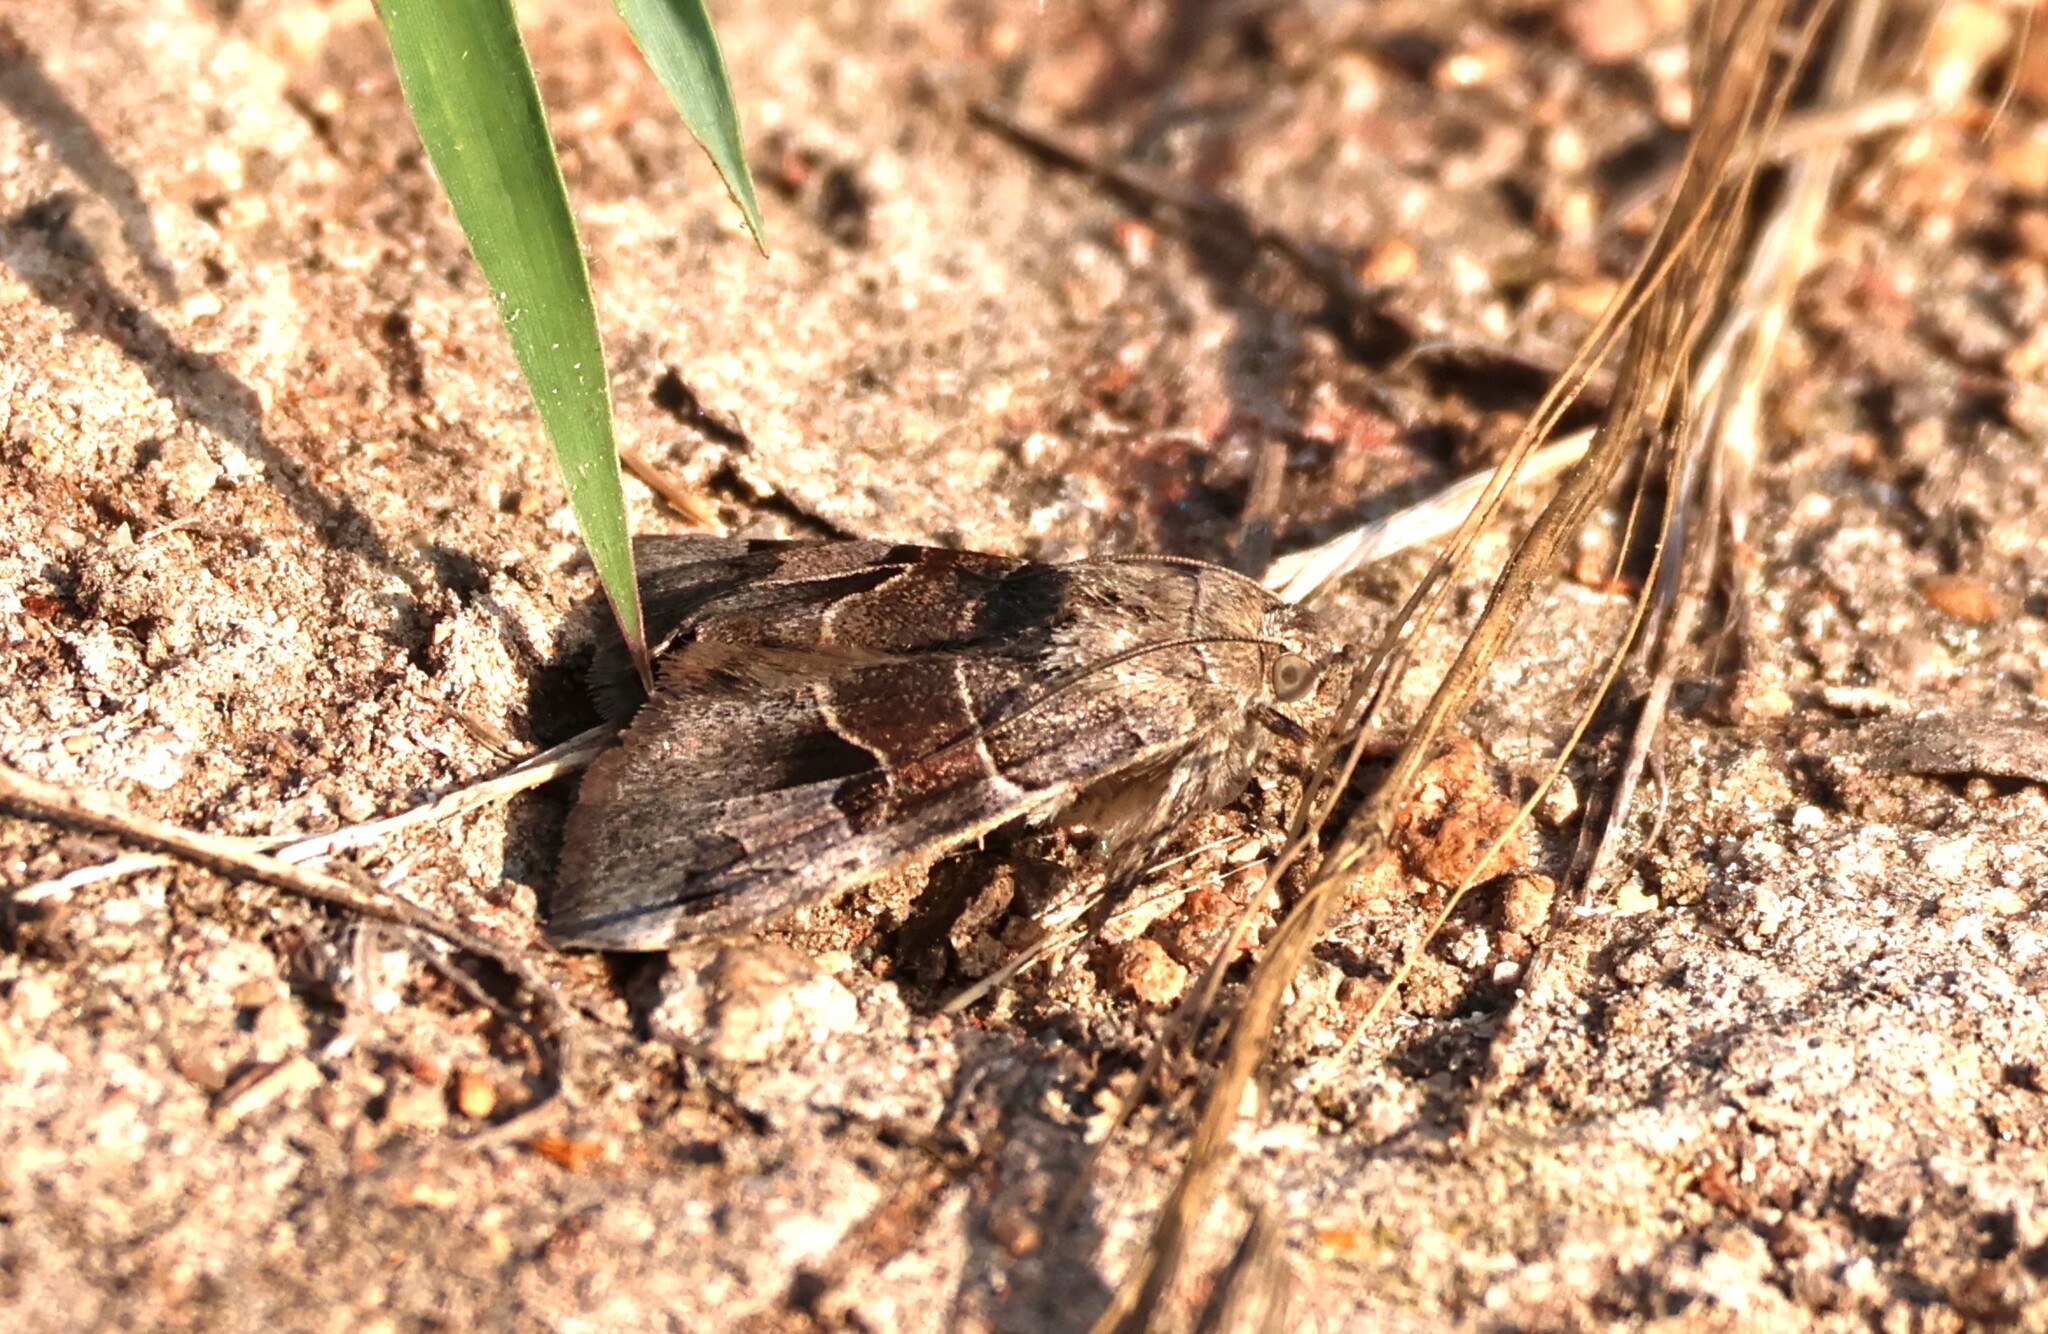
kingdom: Animalia
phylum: Arthropoda
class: Insecta
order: Lepidoptera
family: Erebidae
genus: Drasteria
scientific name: Drasteria edwardsii
